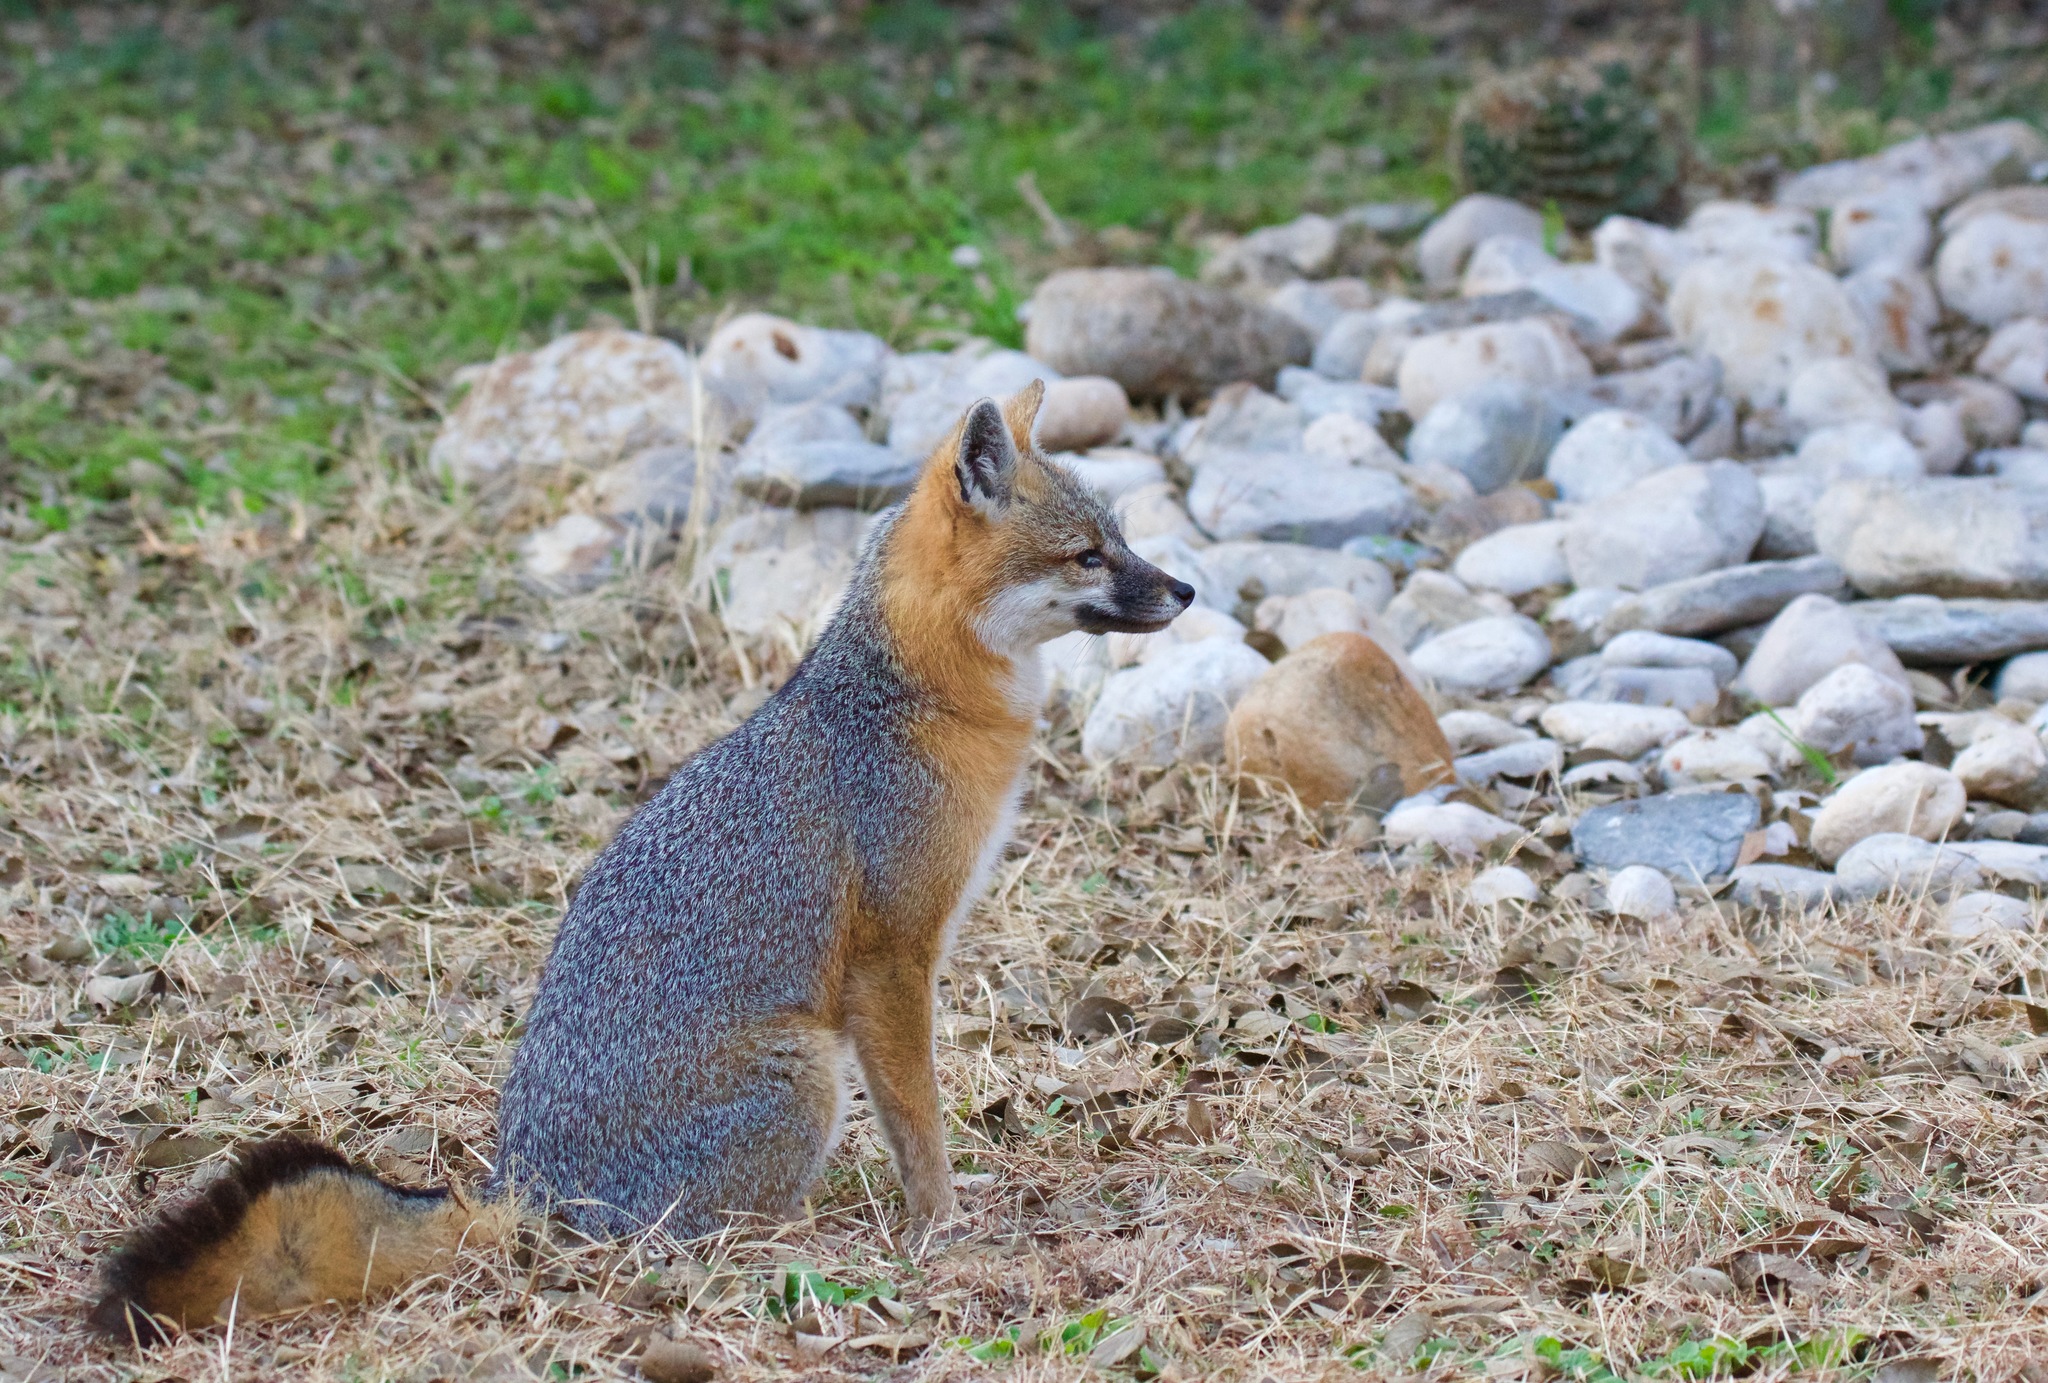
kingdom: Animalia
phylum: Chordata
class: Mammalia
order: Carnivora
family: Canidae
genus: Urocyon
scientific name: Urocyon cinereoargenteus
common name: Gray fox
